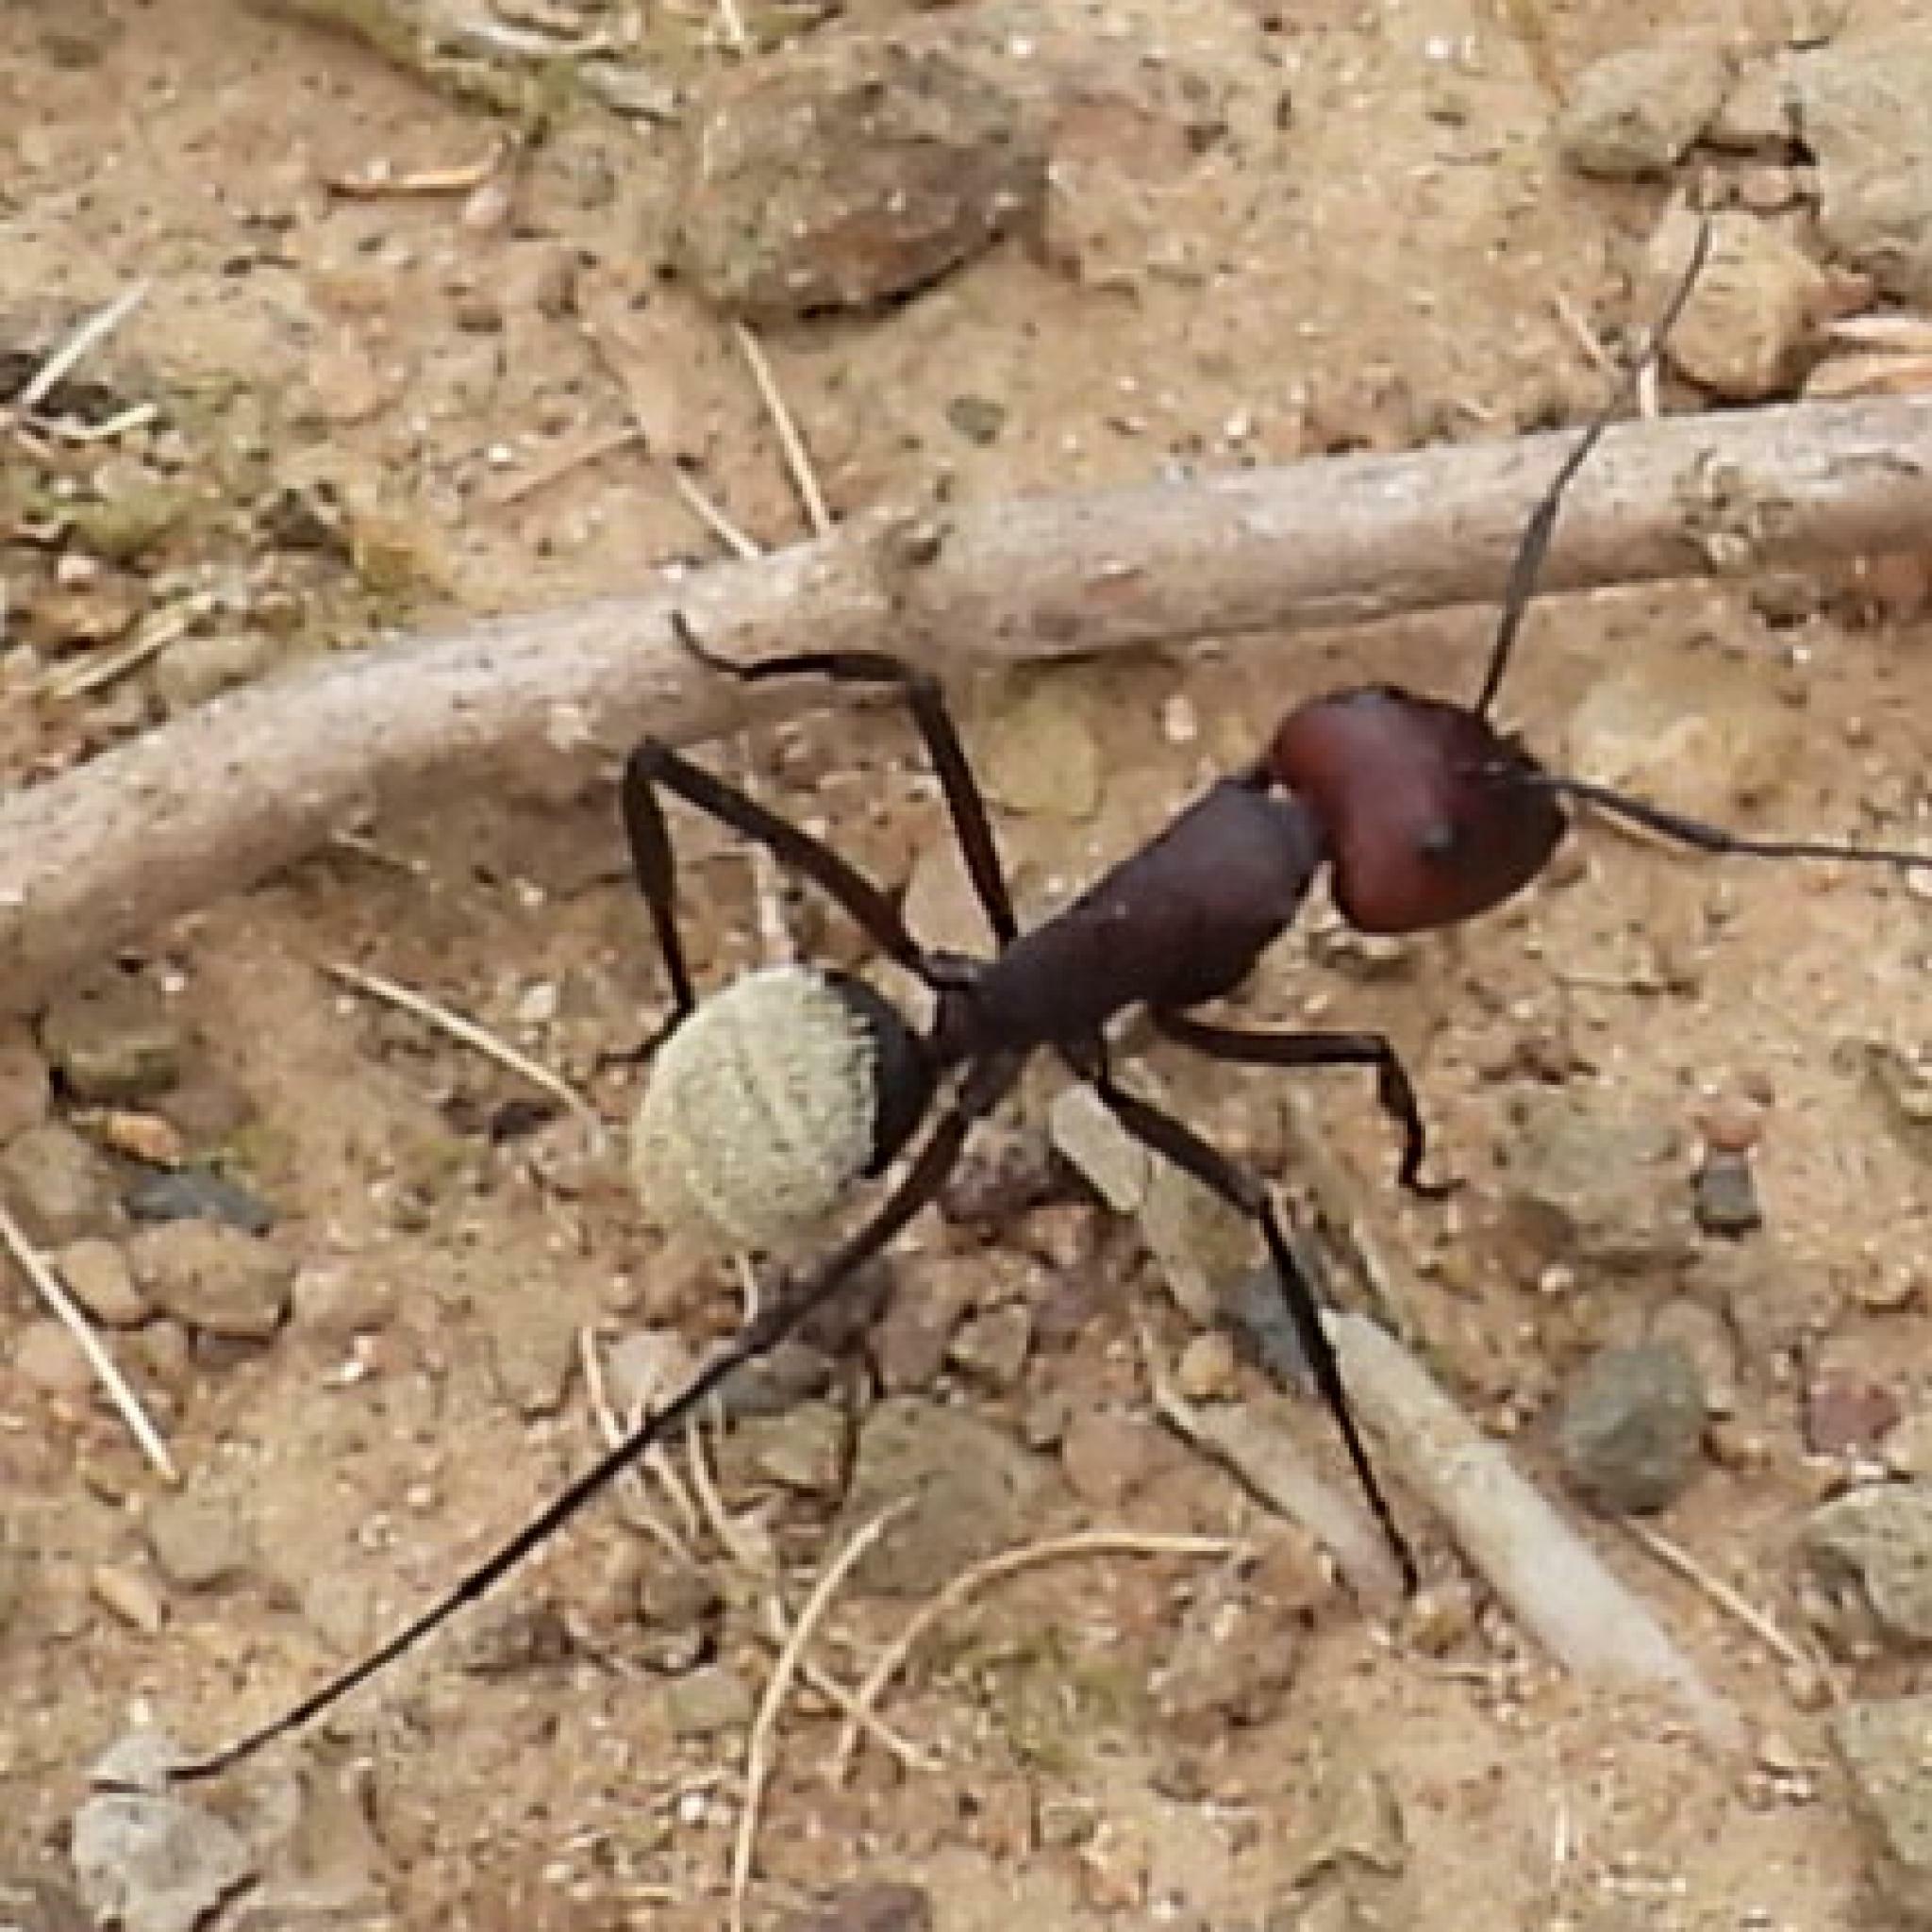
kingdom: Animalia
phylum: Arthropoda
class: Insecta
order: Hymenoptera
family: Formicidae
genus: Camponotus
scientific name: Camponotus storeatus
